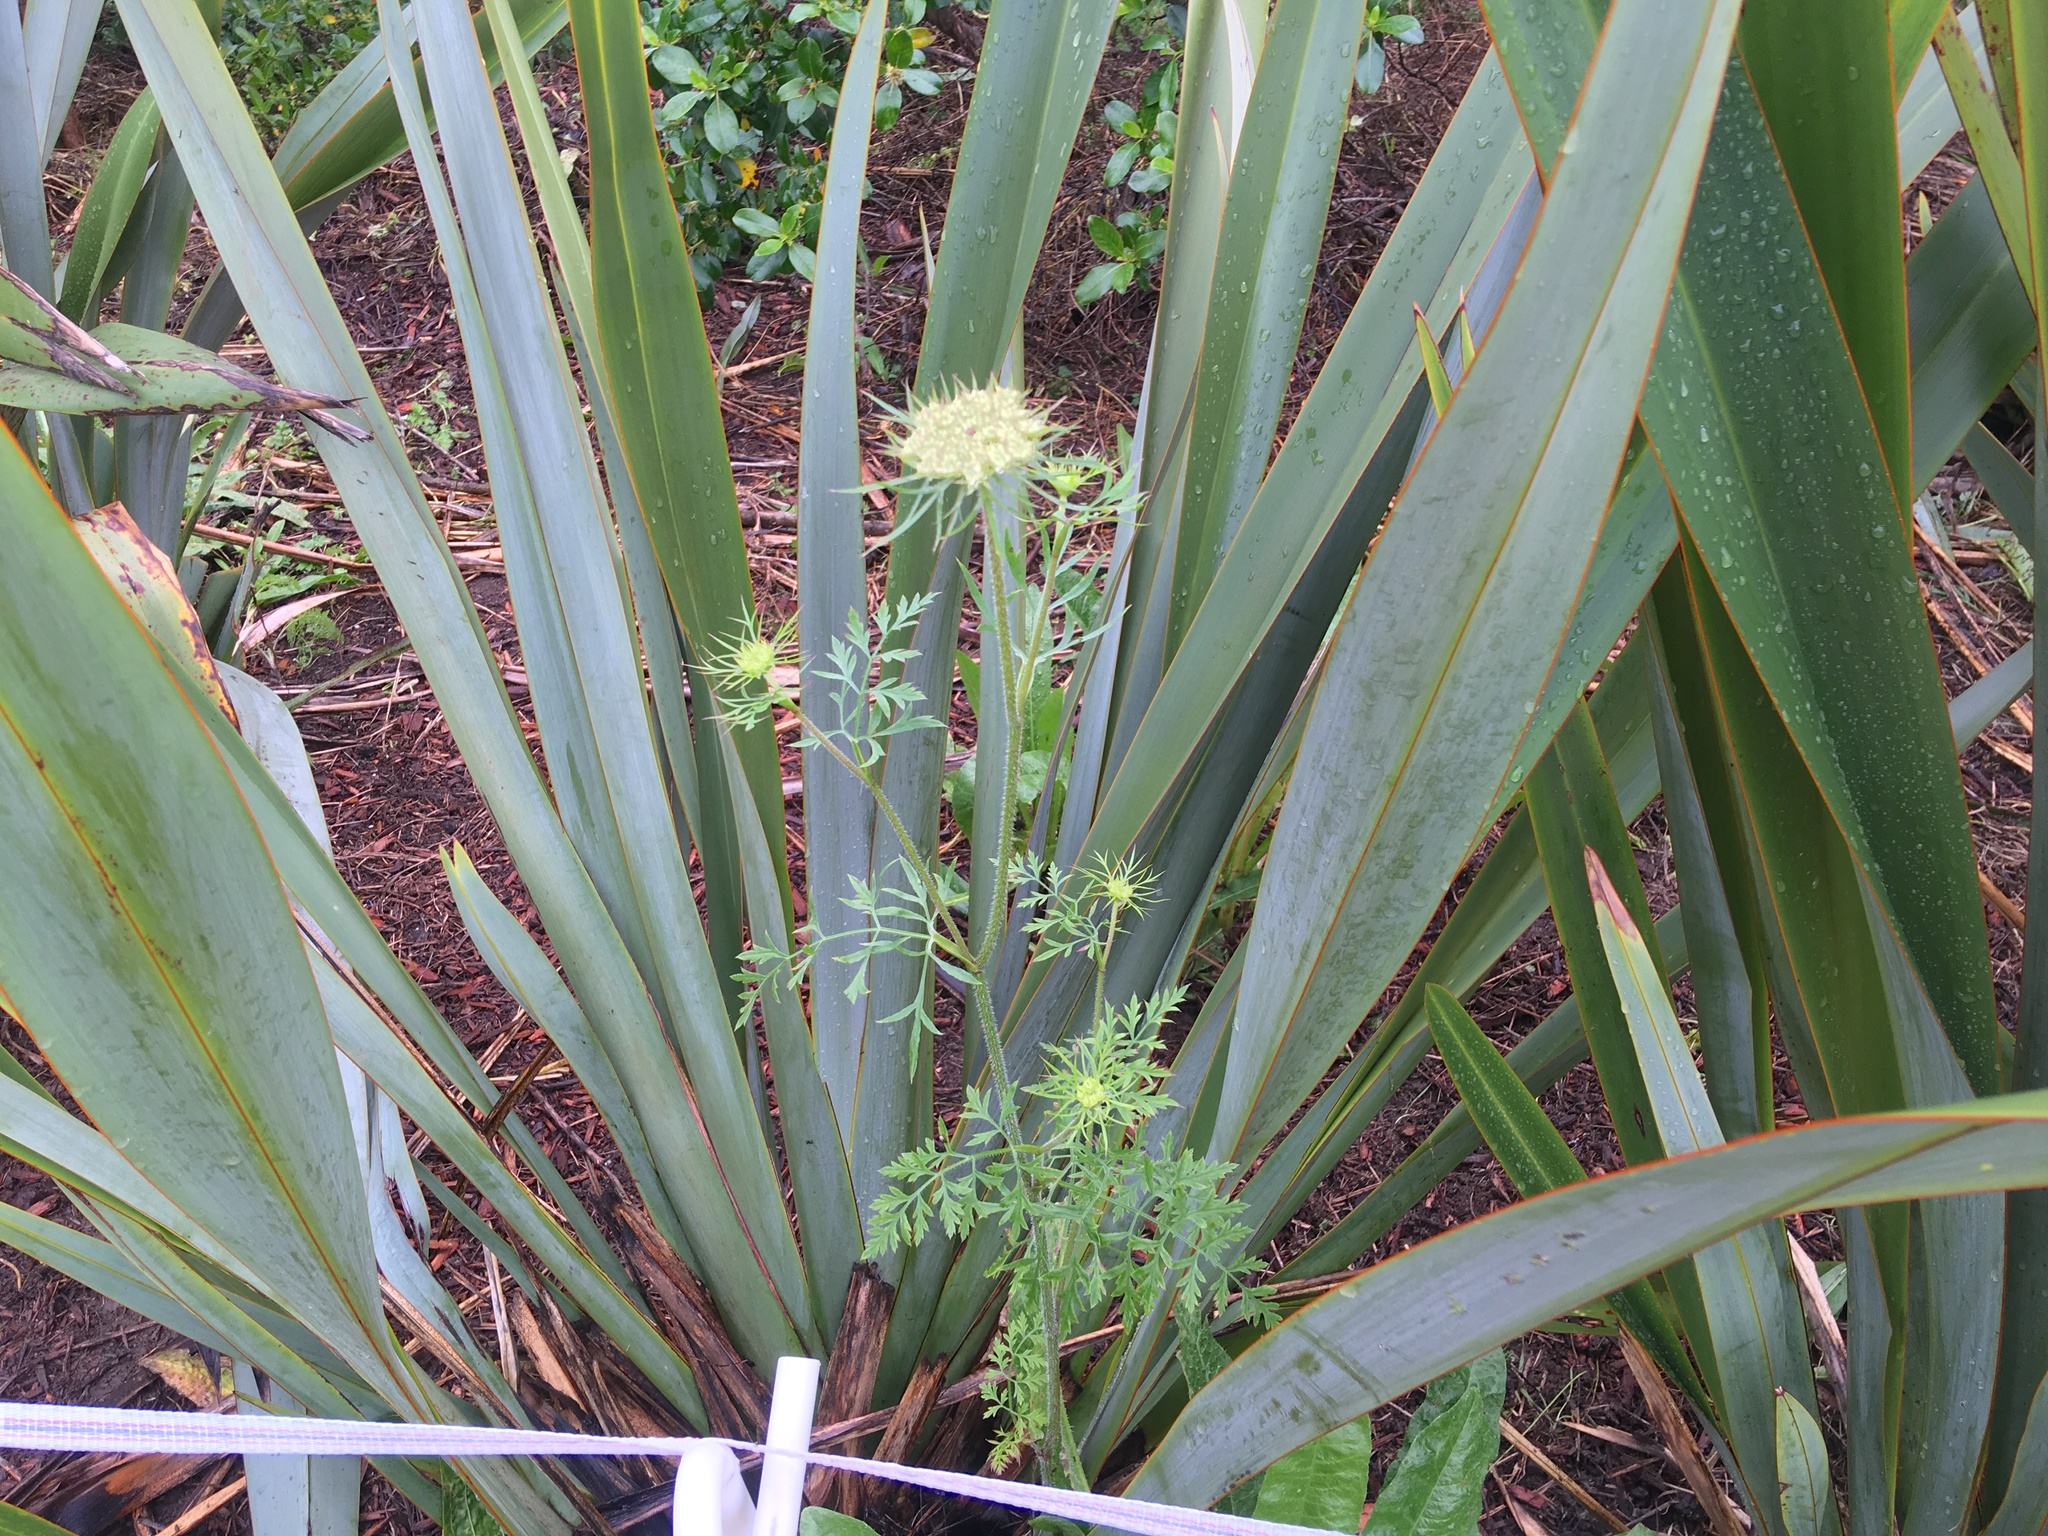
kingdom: Plantae
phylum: Tracheophyta
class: Magnoliopsida
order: Apiales
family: Apiaceae
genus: Daucus
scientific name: Daucus carota
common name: Wild carrot
